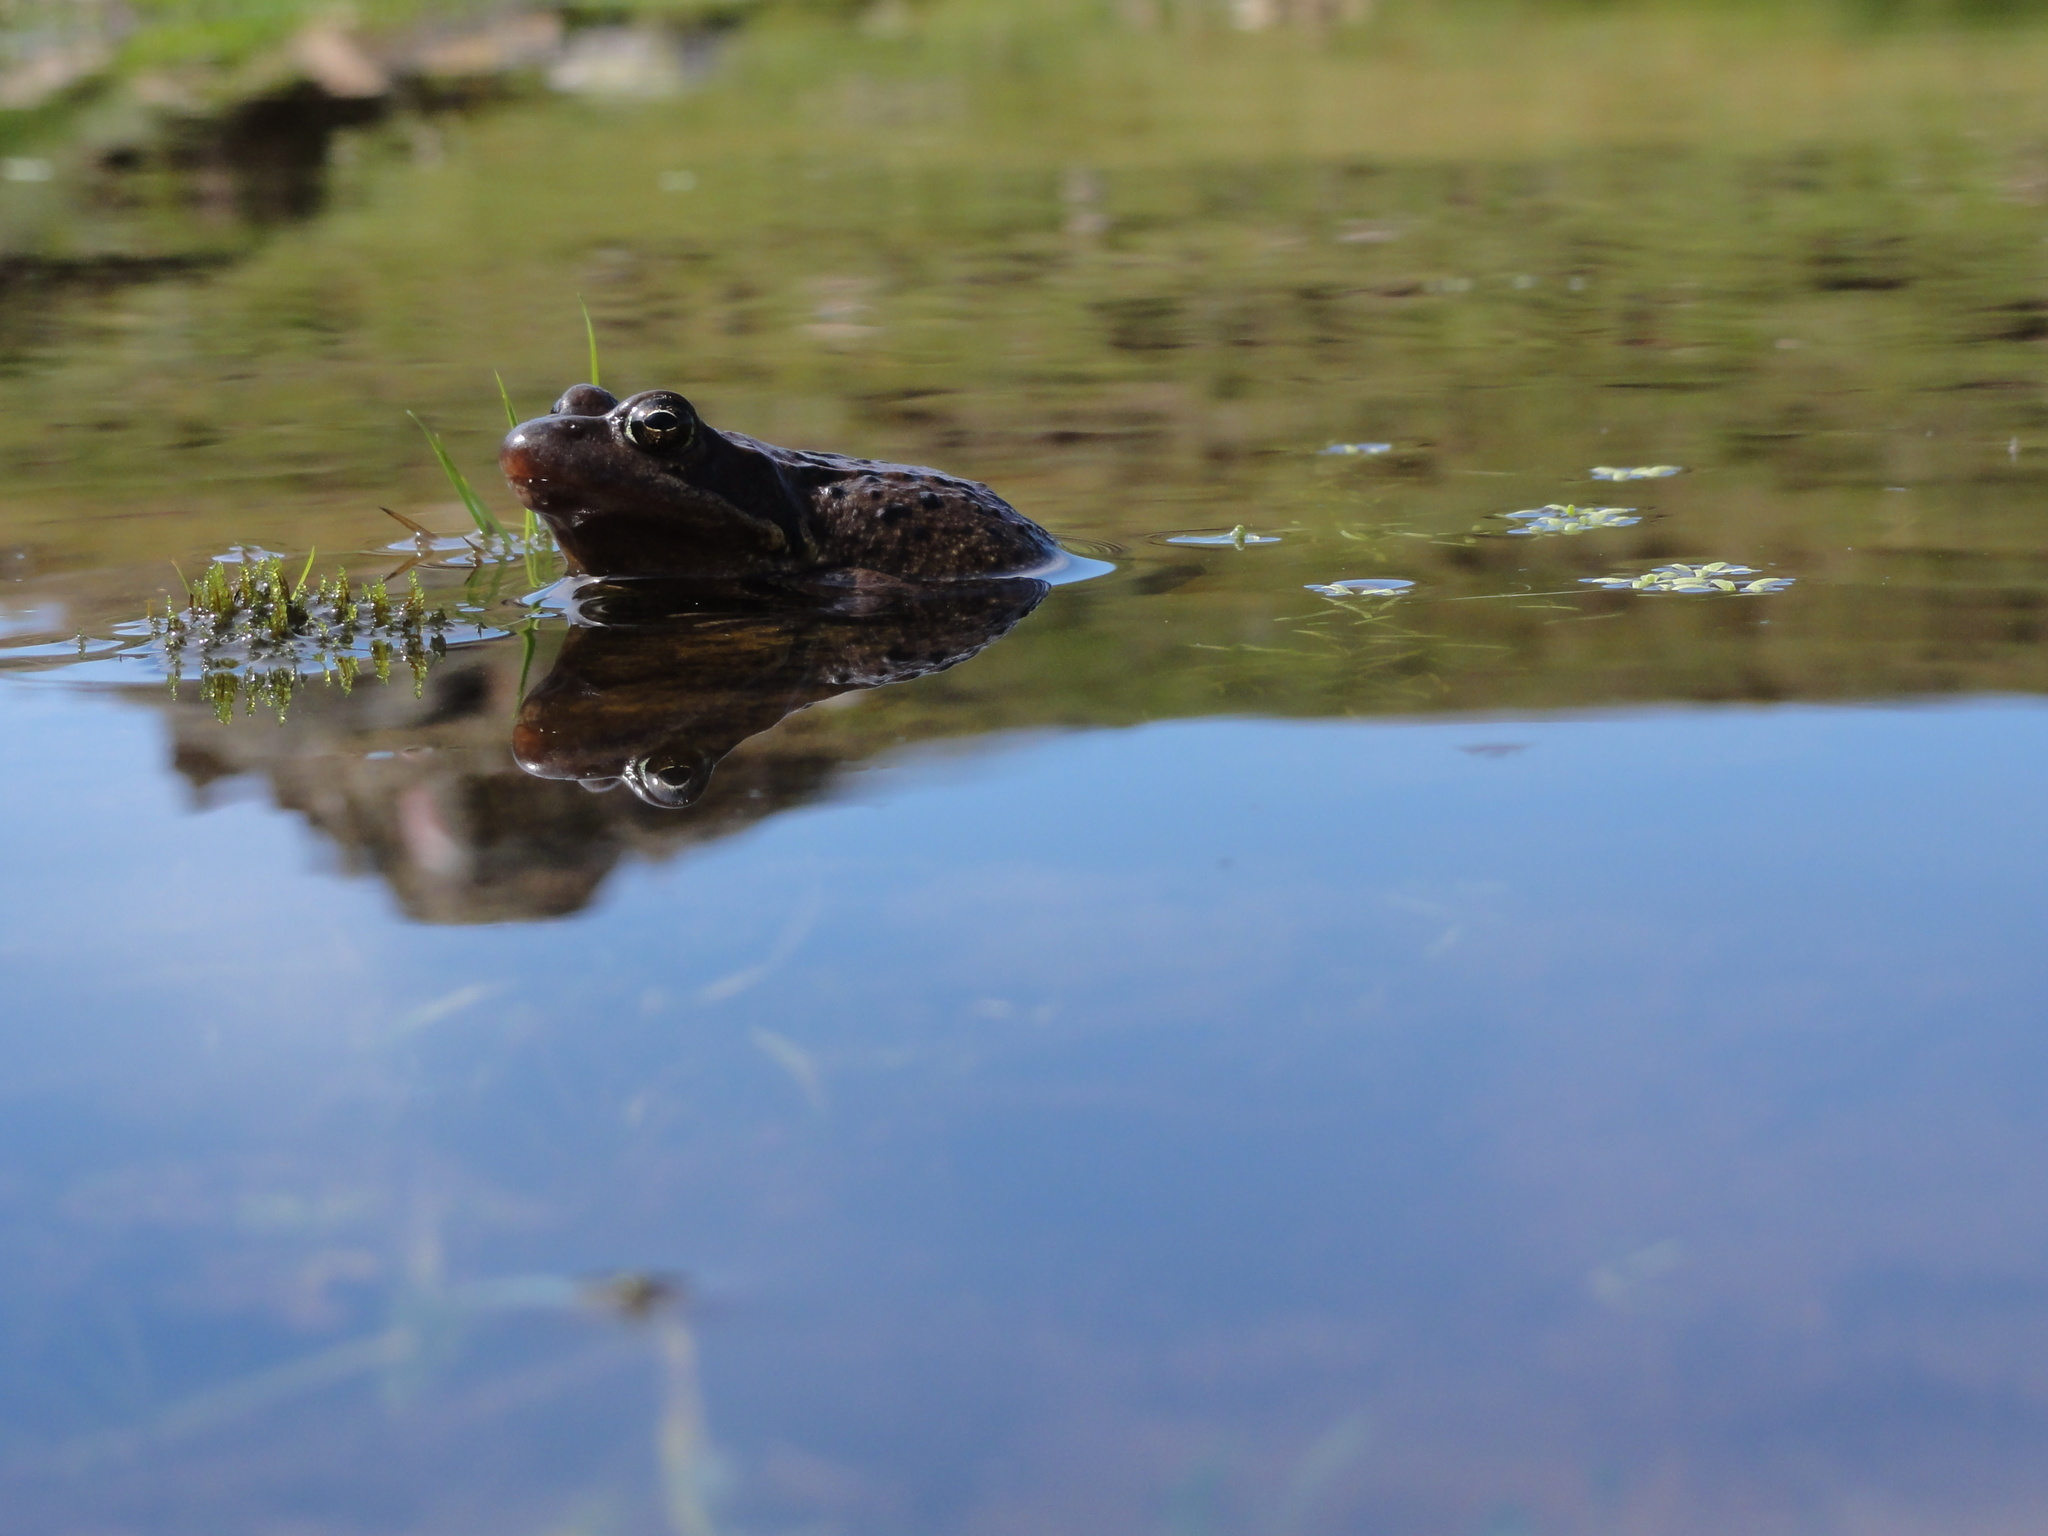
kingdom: Animalia
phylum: Chordata
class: Amphibia
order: Anura
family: Ranidae
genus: Rana
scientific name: Rana temporaria
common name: Common frog
